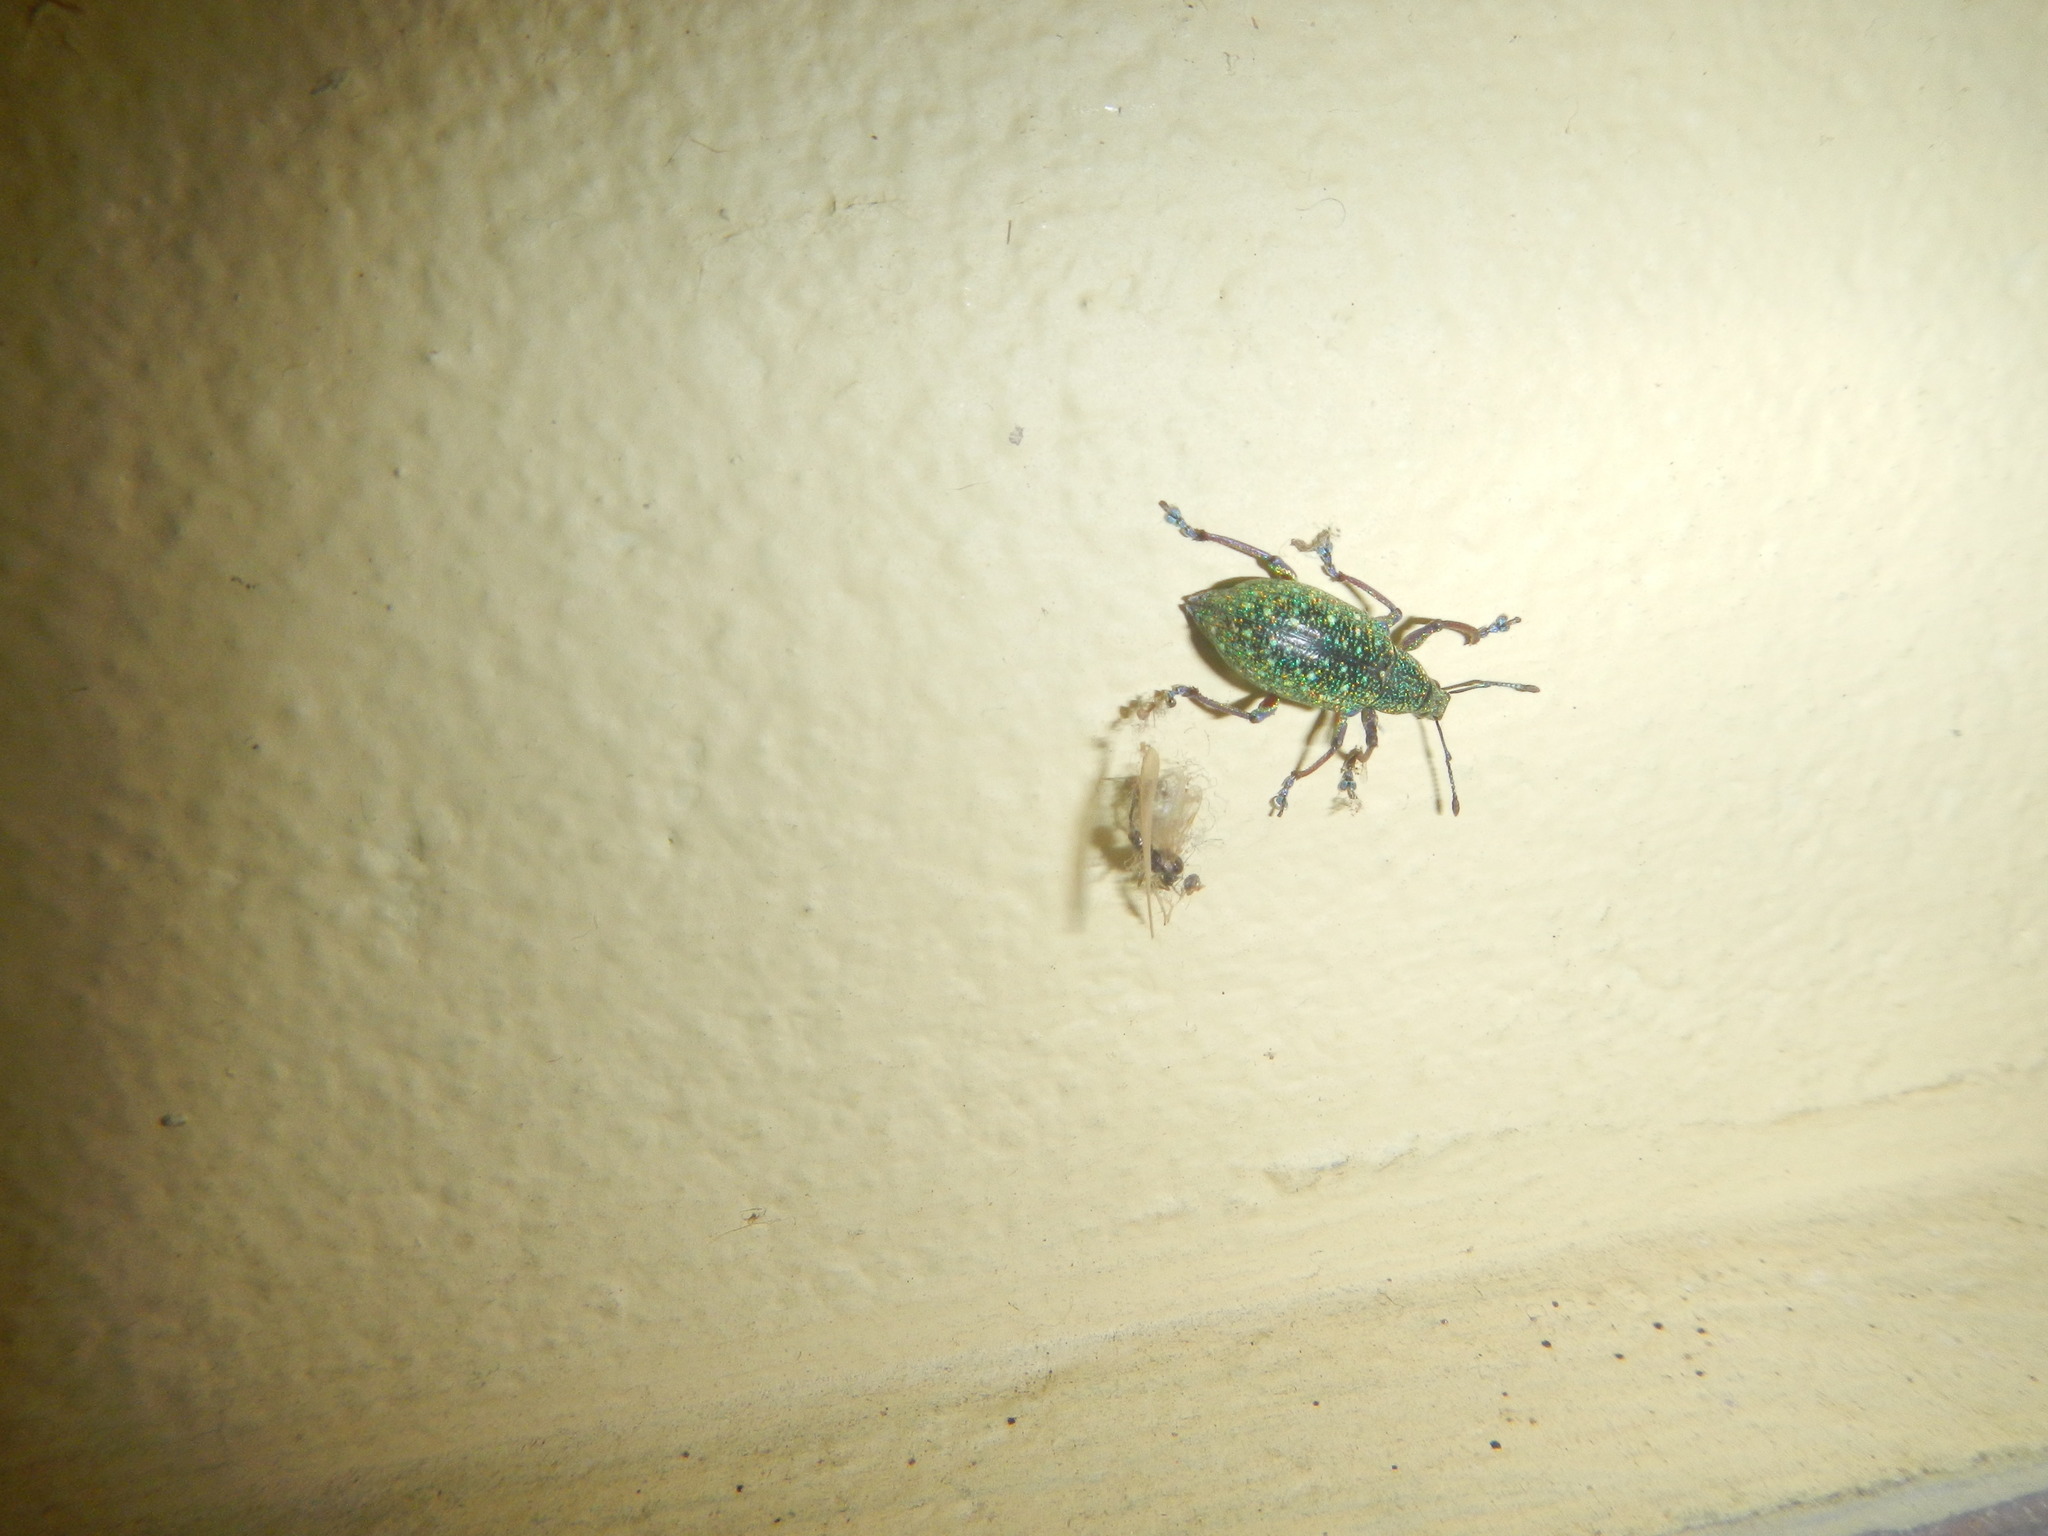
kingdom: Animalia
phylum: Arthropoda
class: Insecta
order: Coleoptera
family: Curculionidae
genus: Exophthalmus
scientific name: Exophthalmus jekelianus
